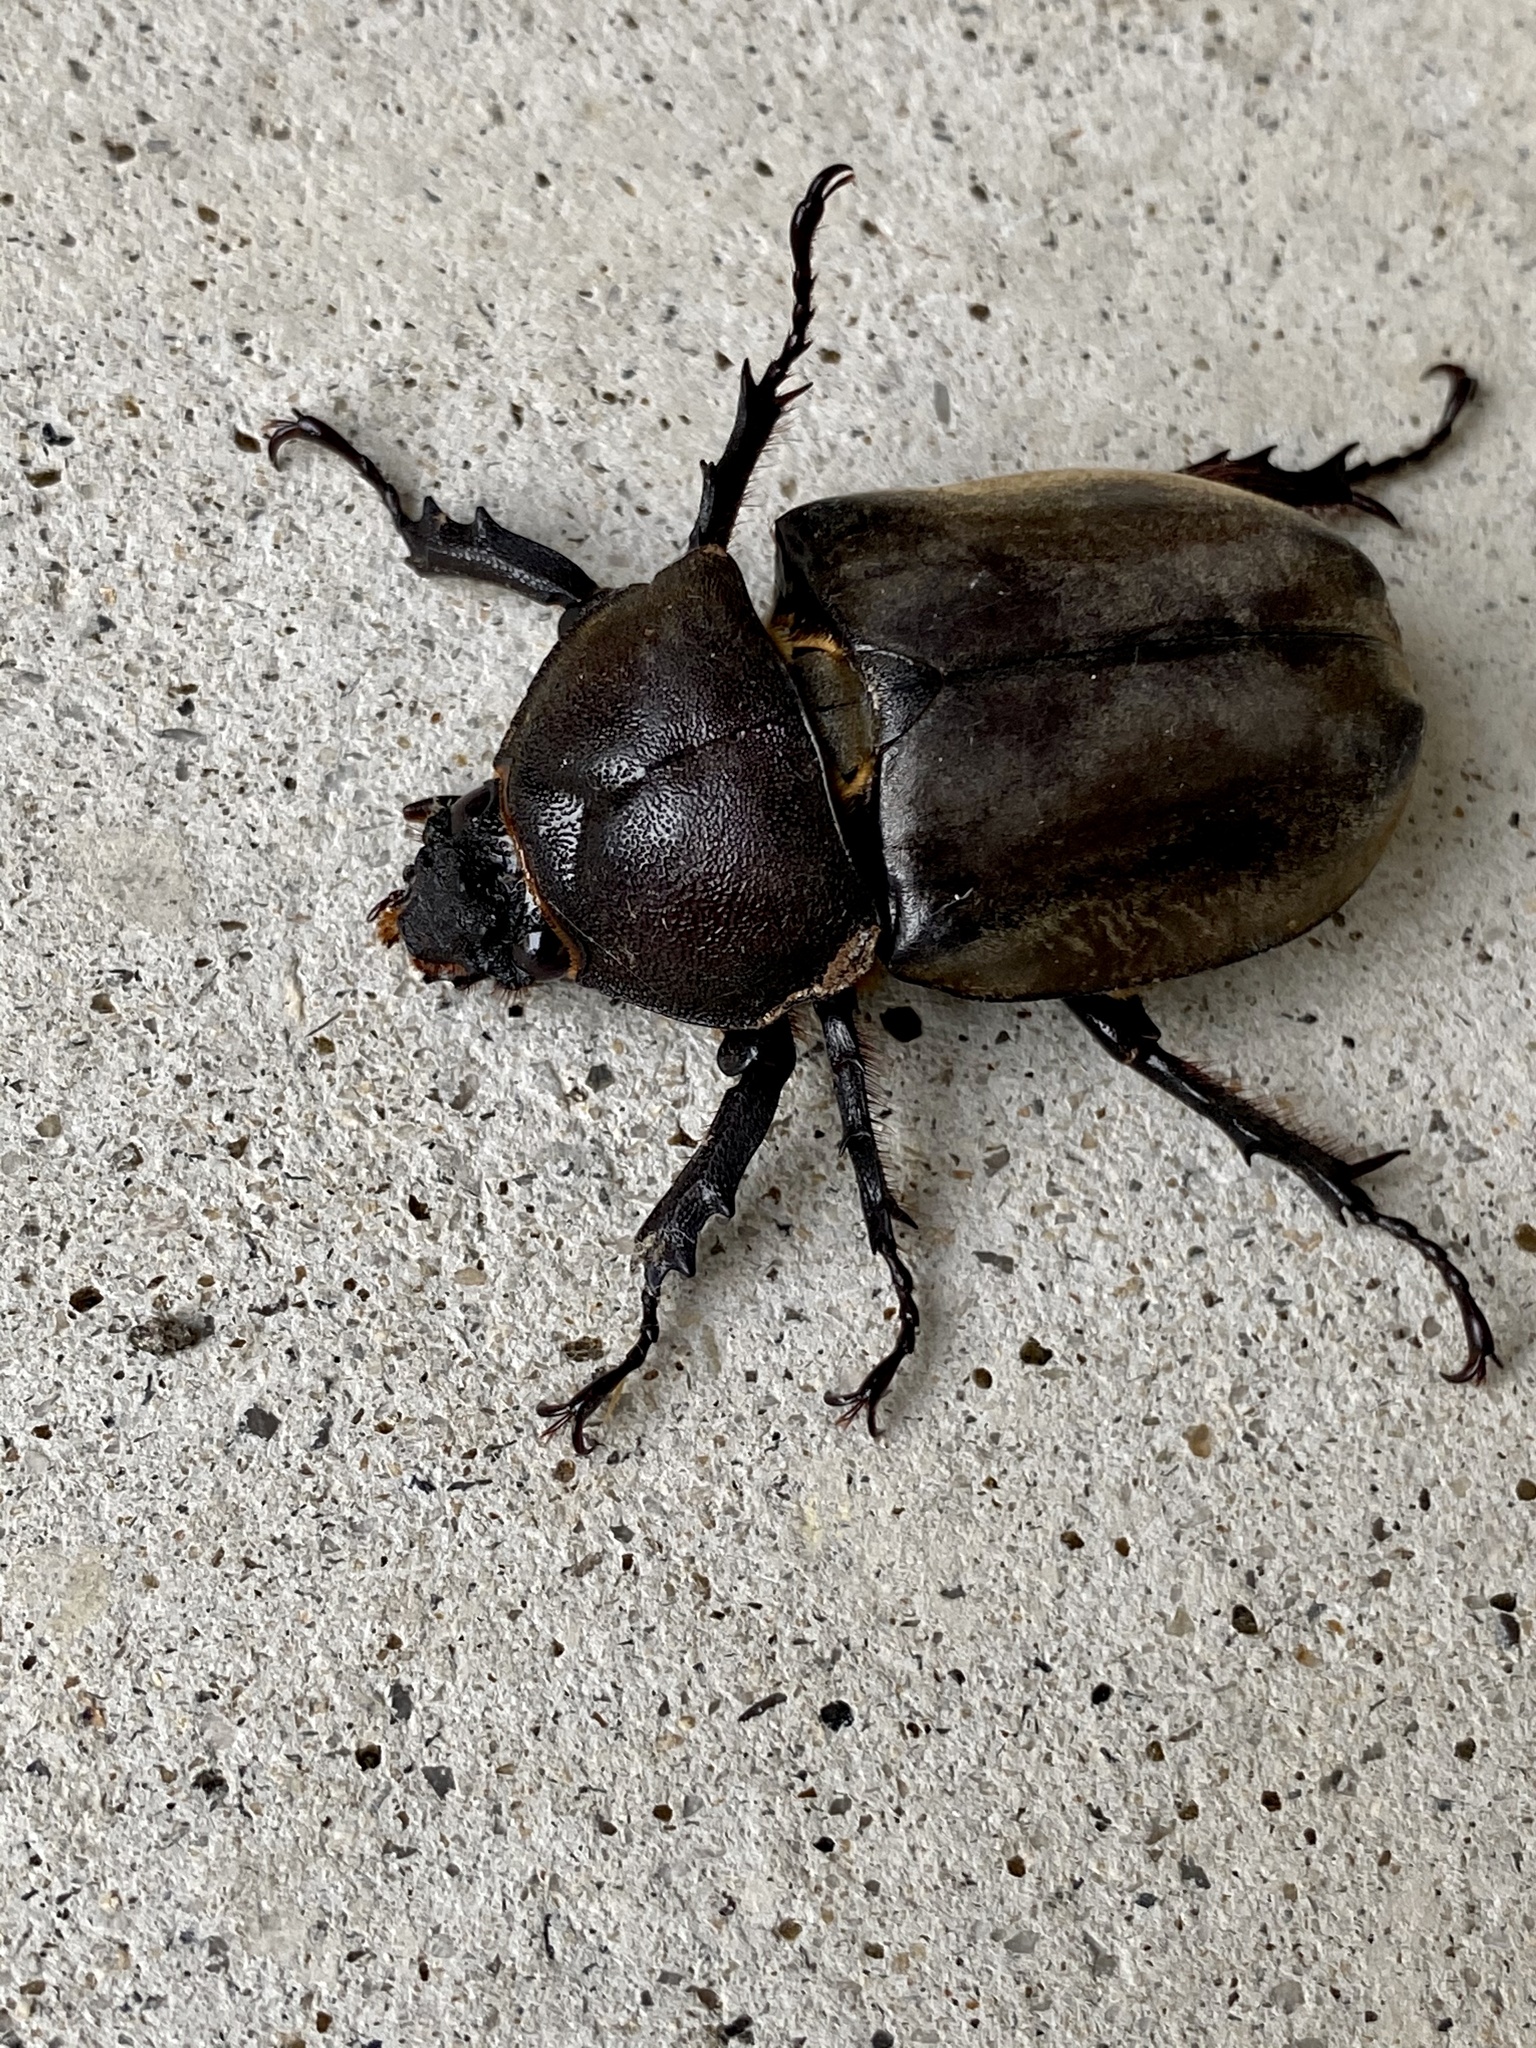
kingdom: Animalia
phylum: Arthropoda
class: Insecta
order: Coleoptera
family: Scarabaeidae
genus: Trypoxylus
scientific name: Trypoxylus dichotomus
